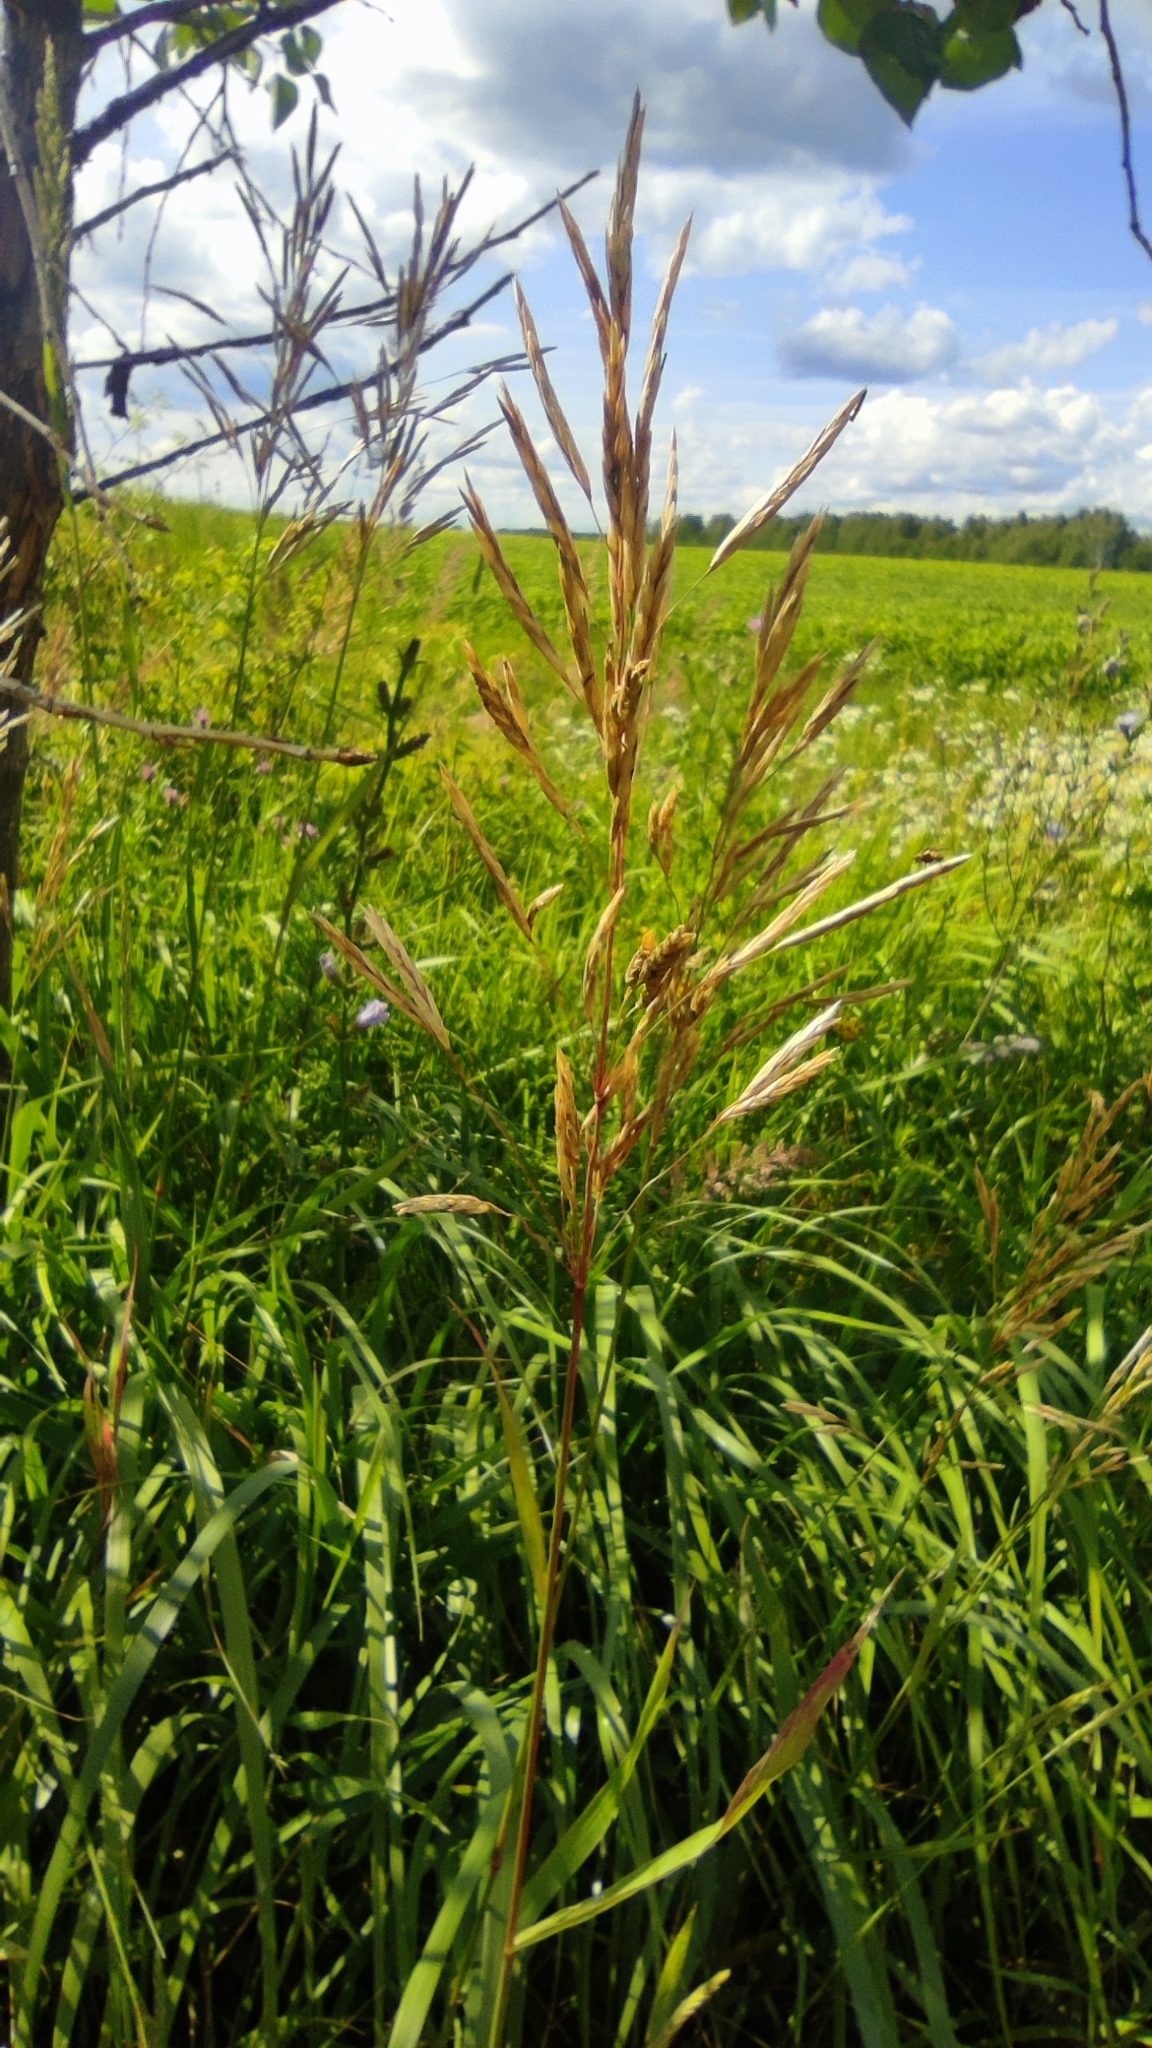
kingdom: Plantae
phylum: Tracheophyta
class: Liliopsida
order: Poales
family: Poaceae
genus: Bromus
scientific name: Bromus inermis
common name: Smooth brome
